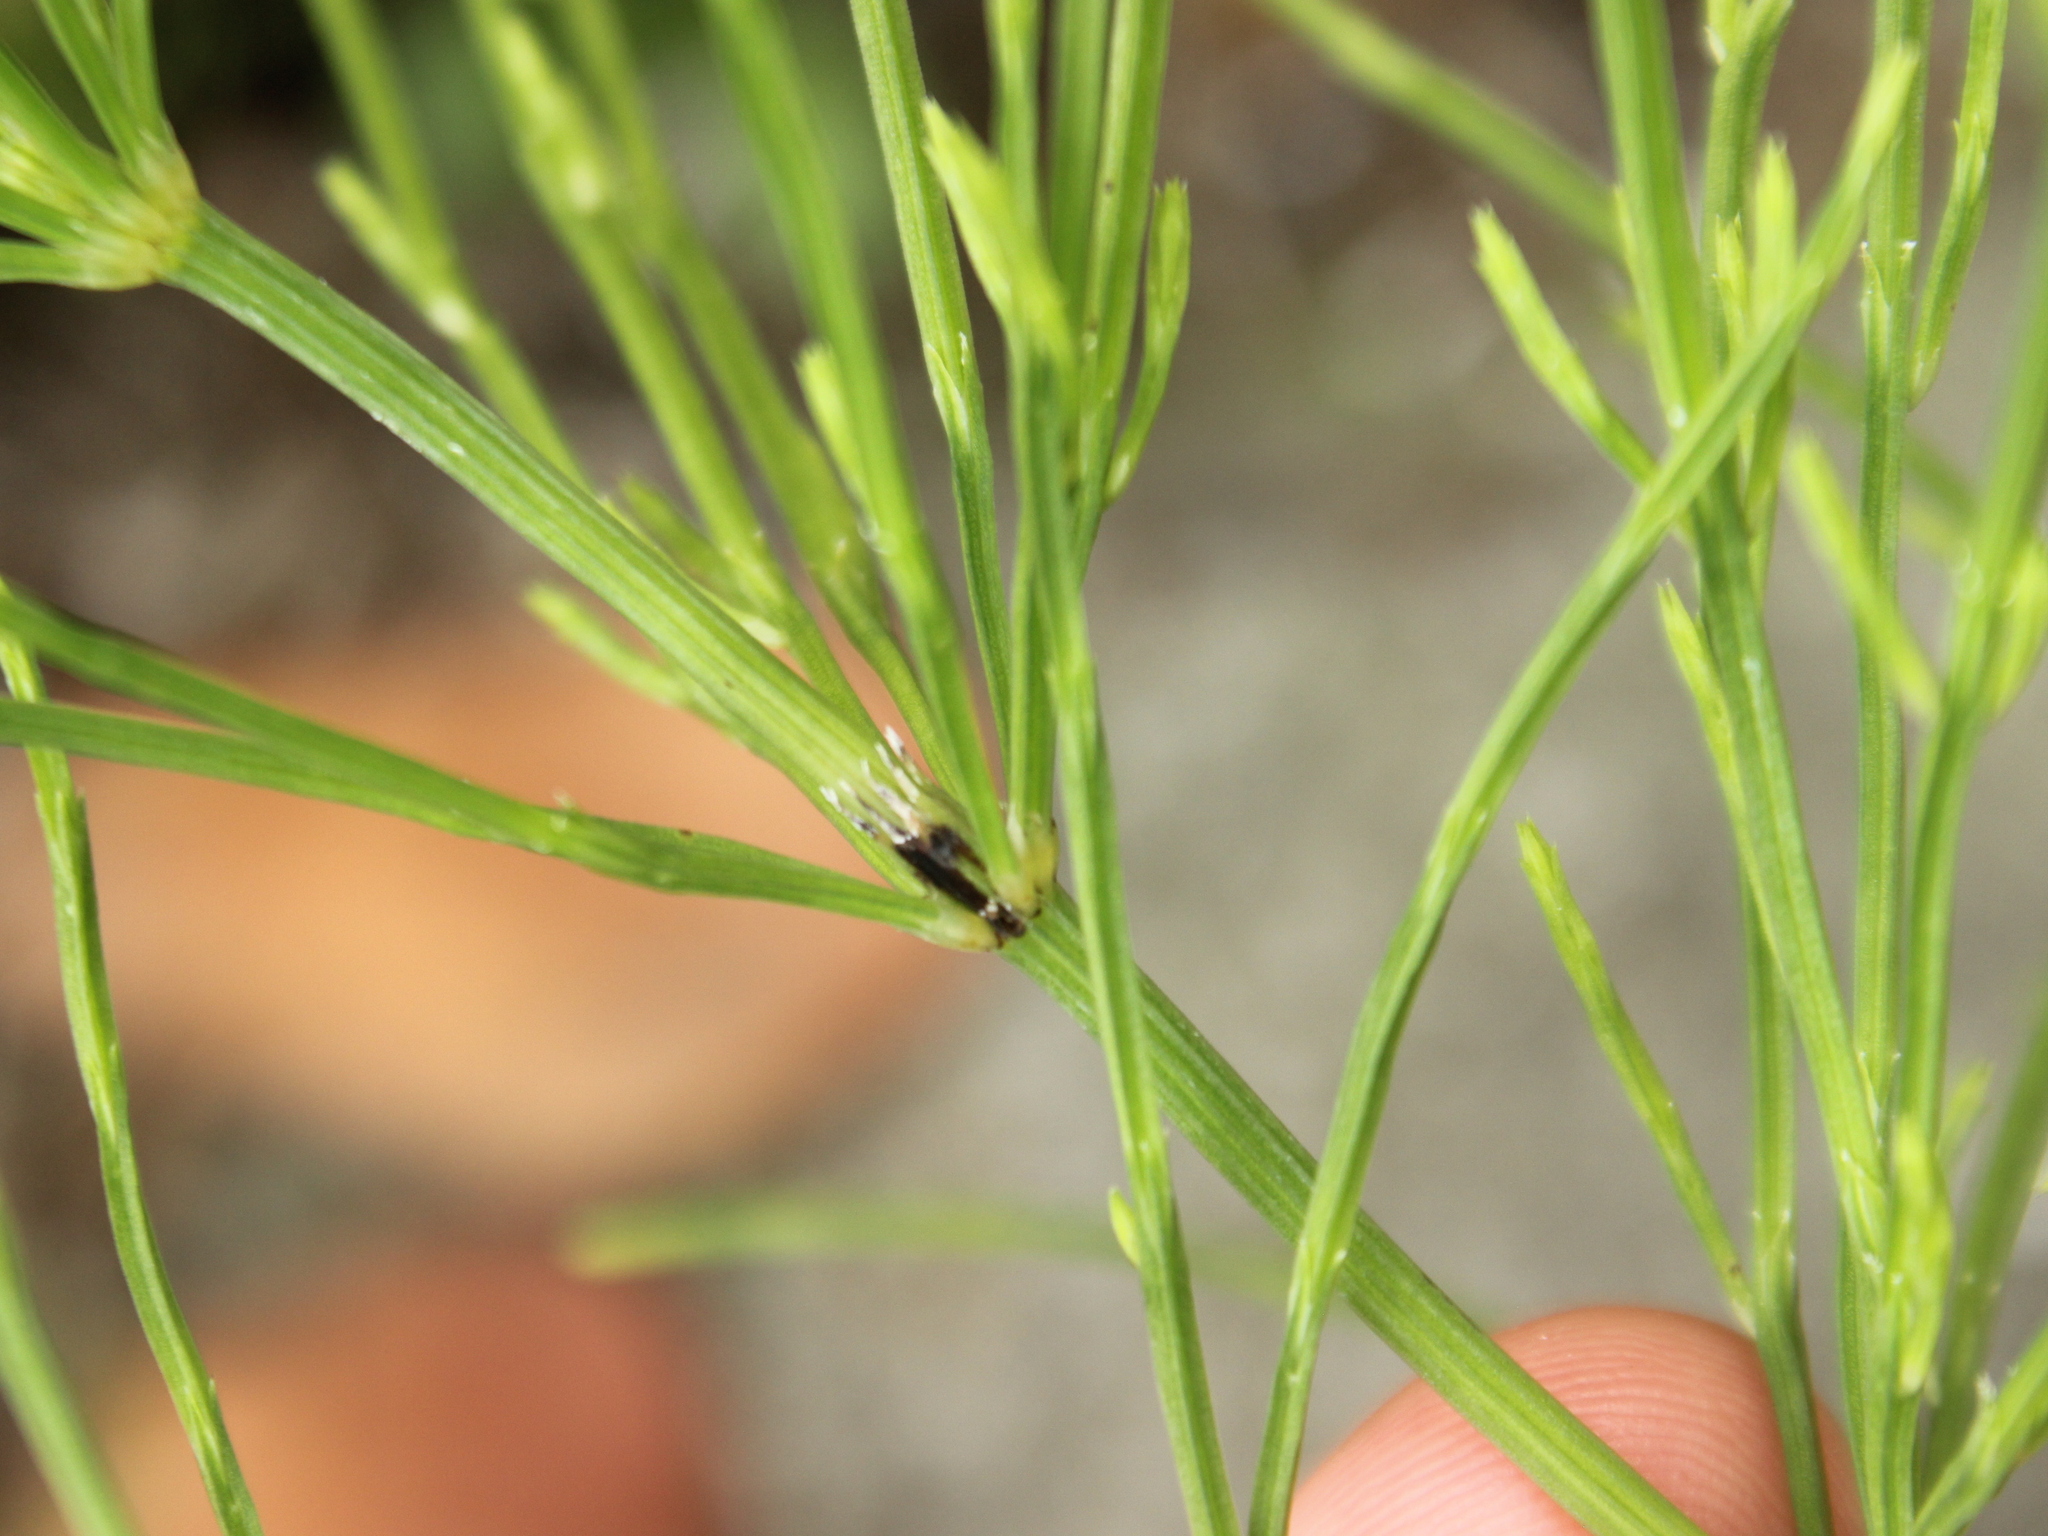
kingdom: Plantae
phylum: Tracheophyta
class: Polypodiopsida
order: Equisetales
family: Equisetaceae
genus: Equisetum
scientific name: Equisetum arvense
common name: Field horsetail
